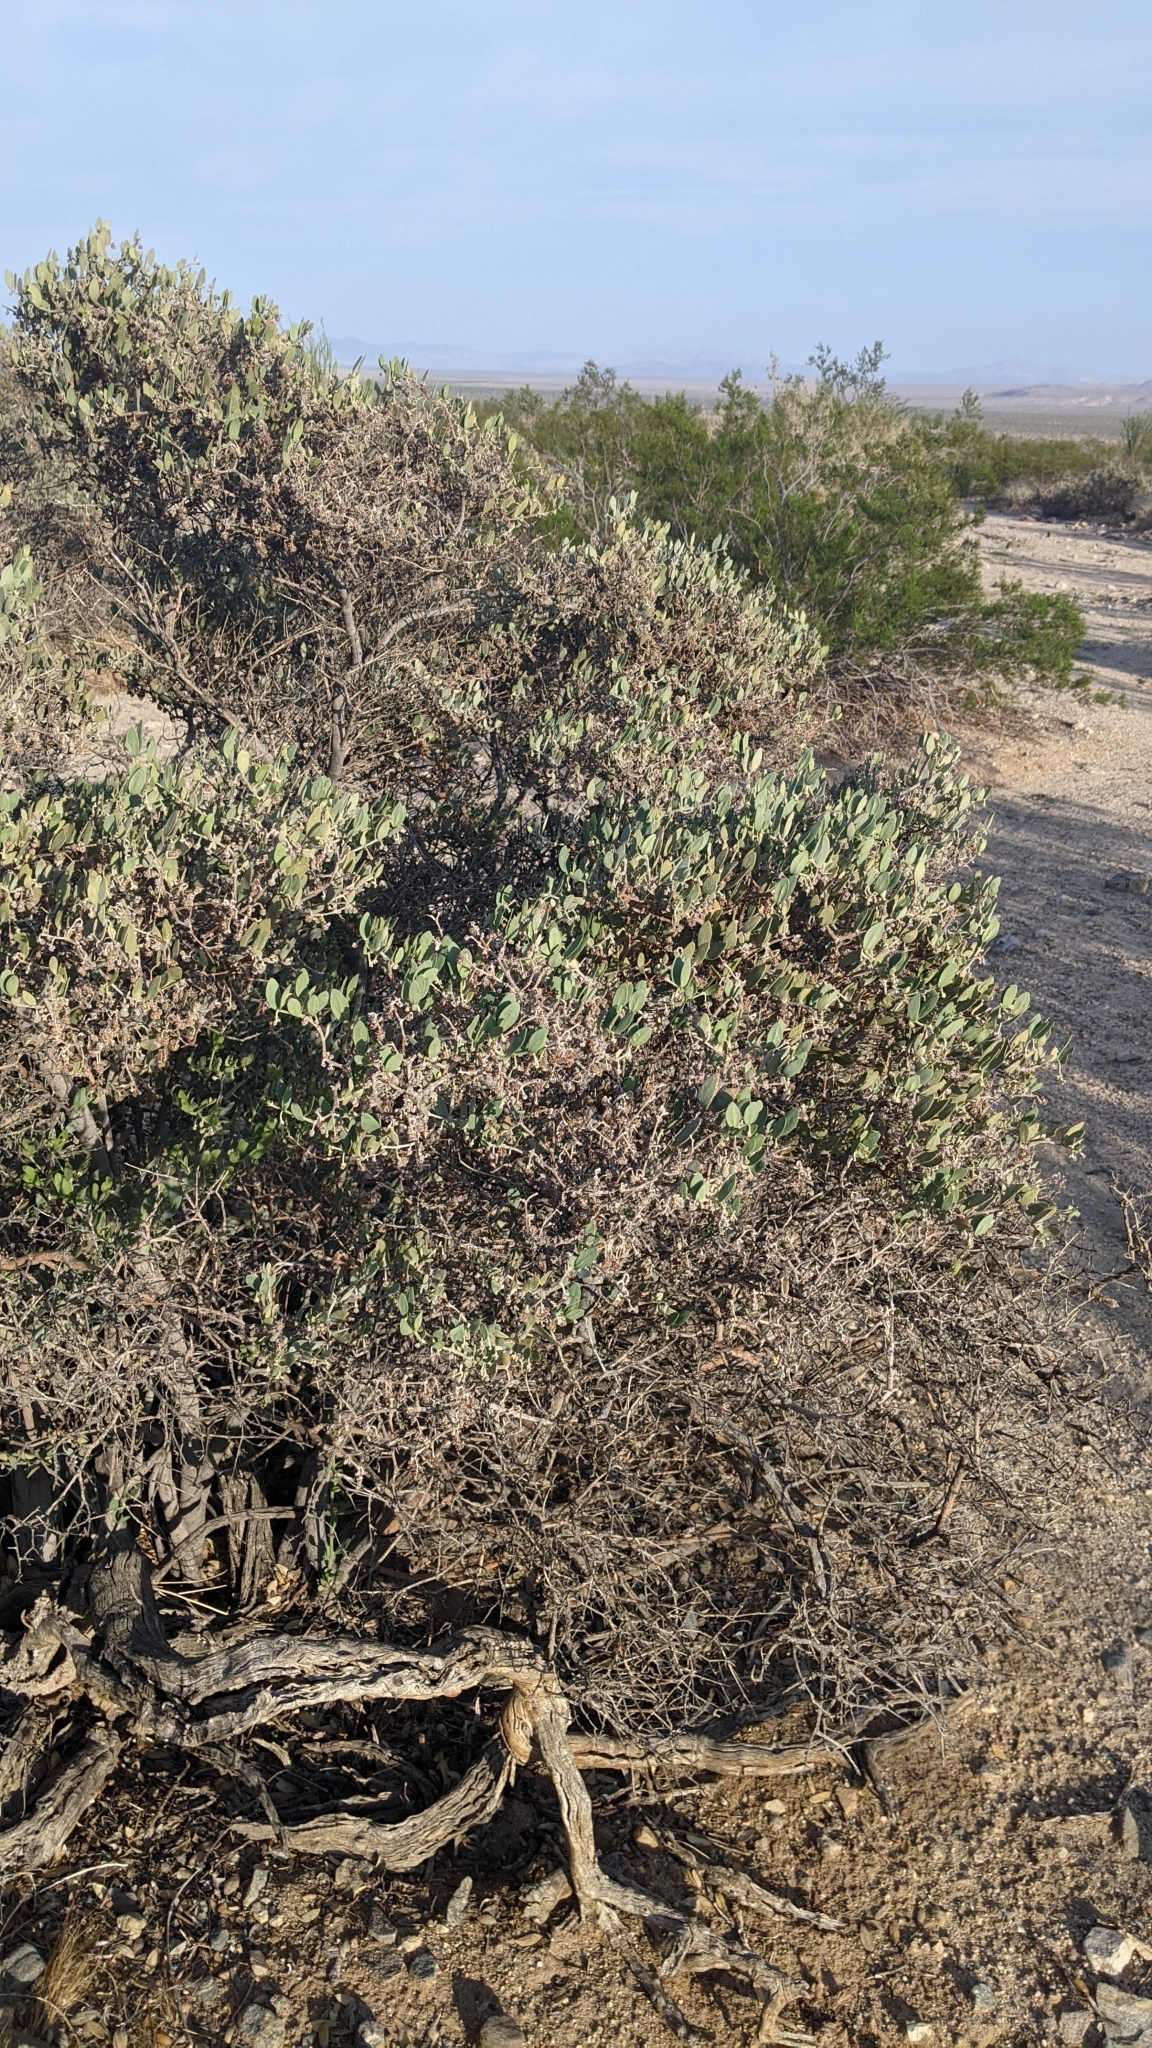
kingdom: Plantae
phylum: Tracheophyta
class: Magnoliopsida
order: Caryophyllales
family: Simmondsiaceae
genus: Simmondsia
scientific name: Simmondsia chinensis
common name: Jojoba
